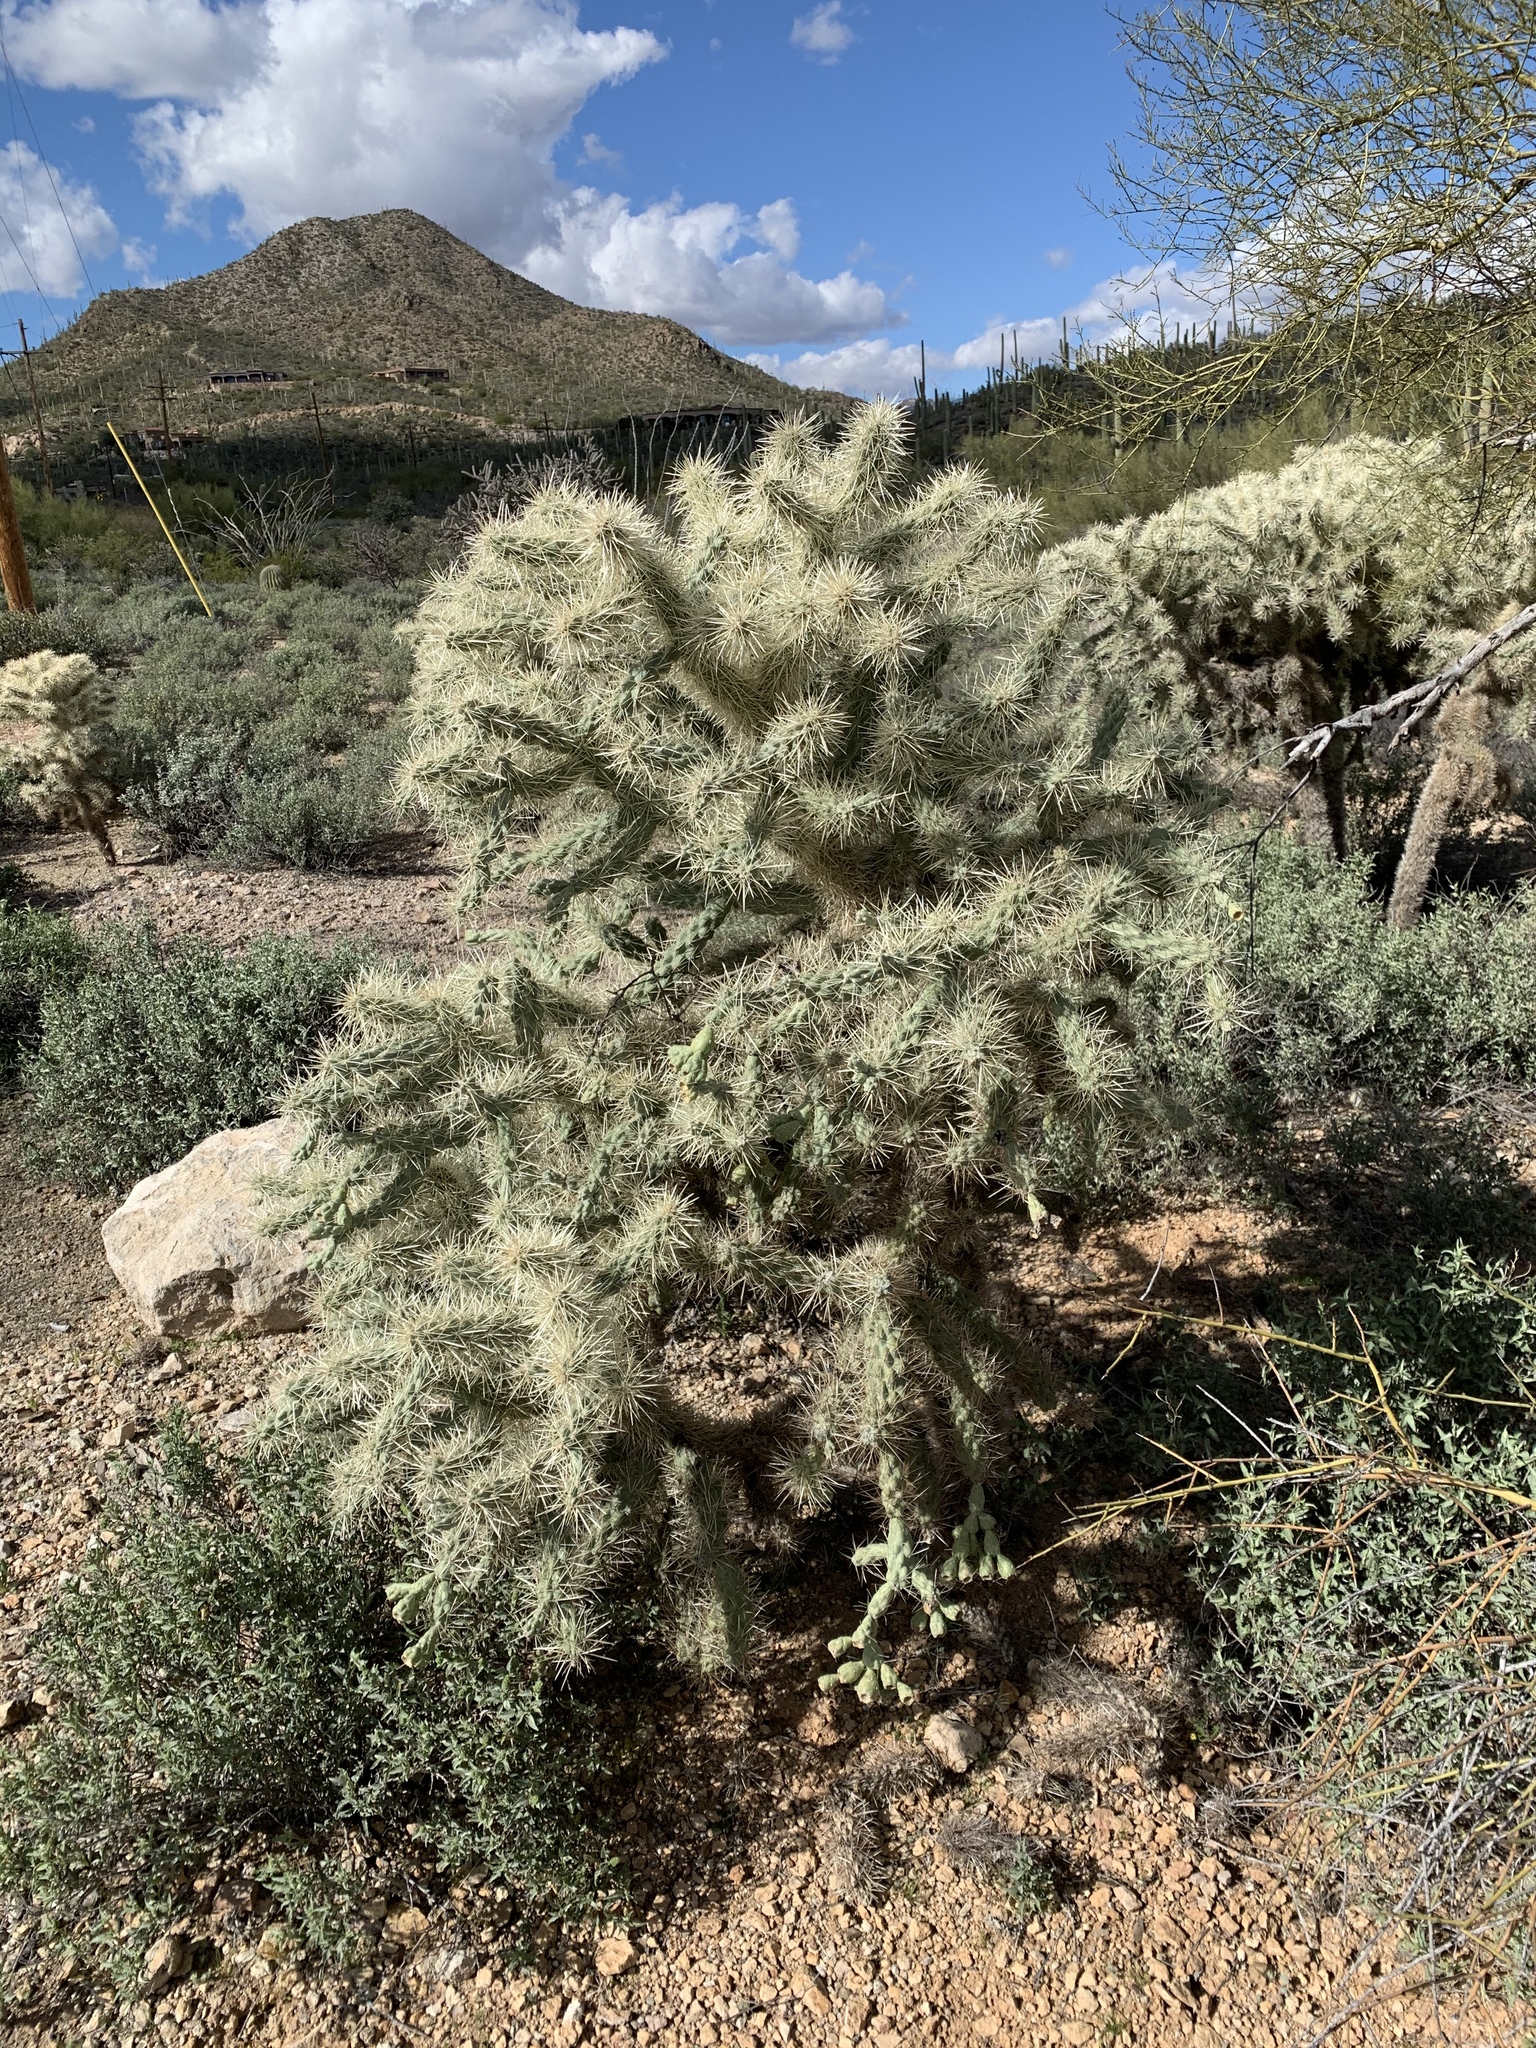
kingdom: Plantae
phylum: Tracheophyta
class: Magnoliopsida
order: Caryophyllales
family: Cactaceae
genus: Cylindropuntia
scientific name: Cylindropuntia fulgida
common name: Jumping cholla
